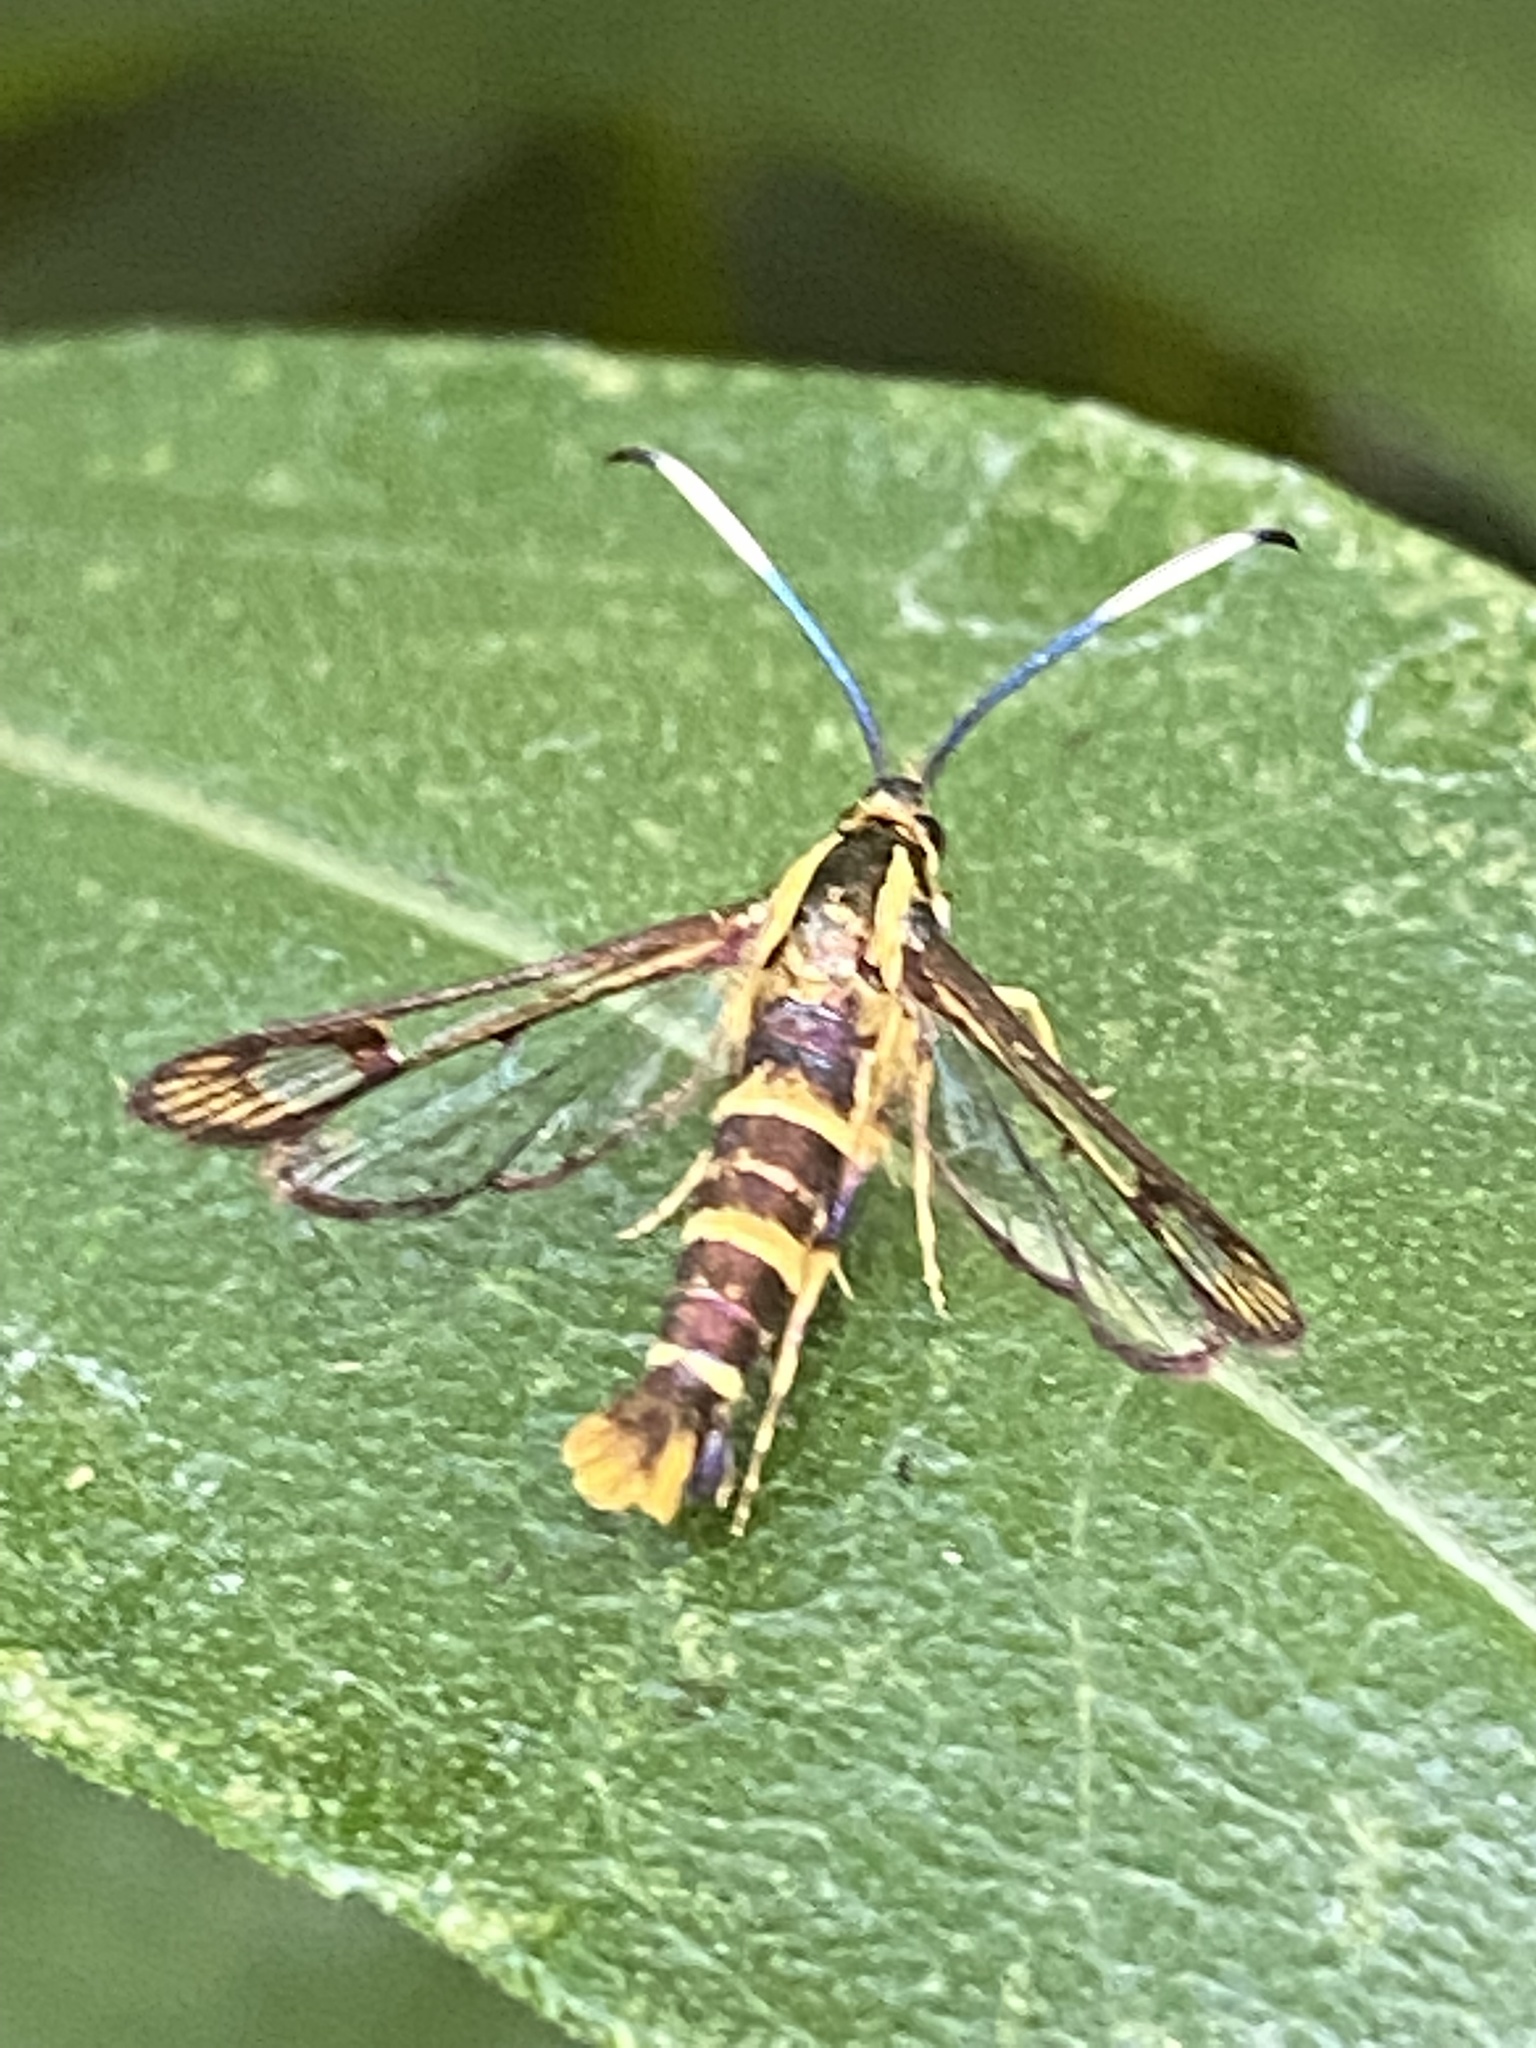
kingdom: Animalia
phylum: Arthropoda
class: Insecta
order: Lepidoptera
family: Sesiidae
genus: Carmenta
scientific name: Carmenta bassiformis
